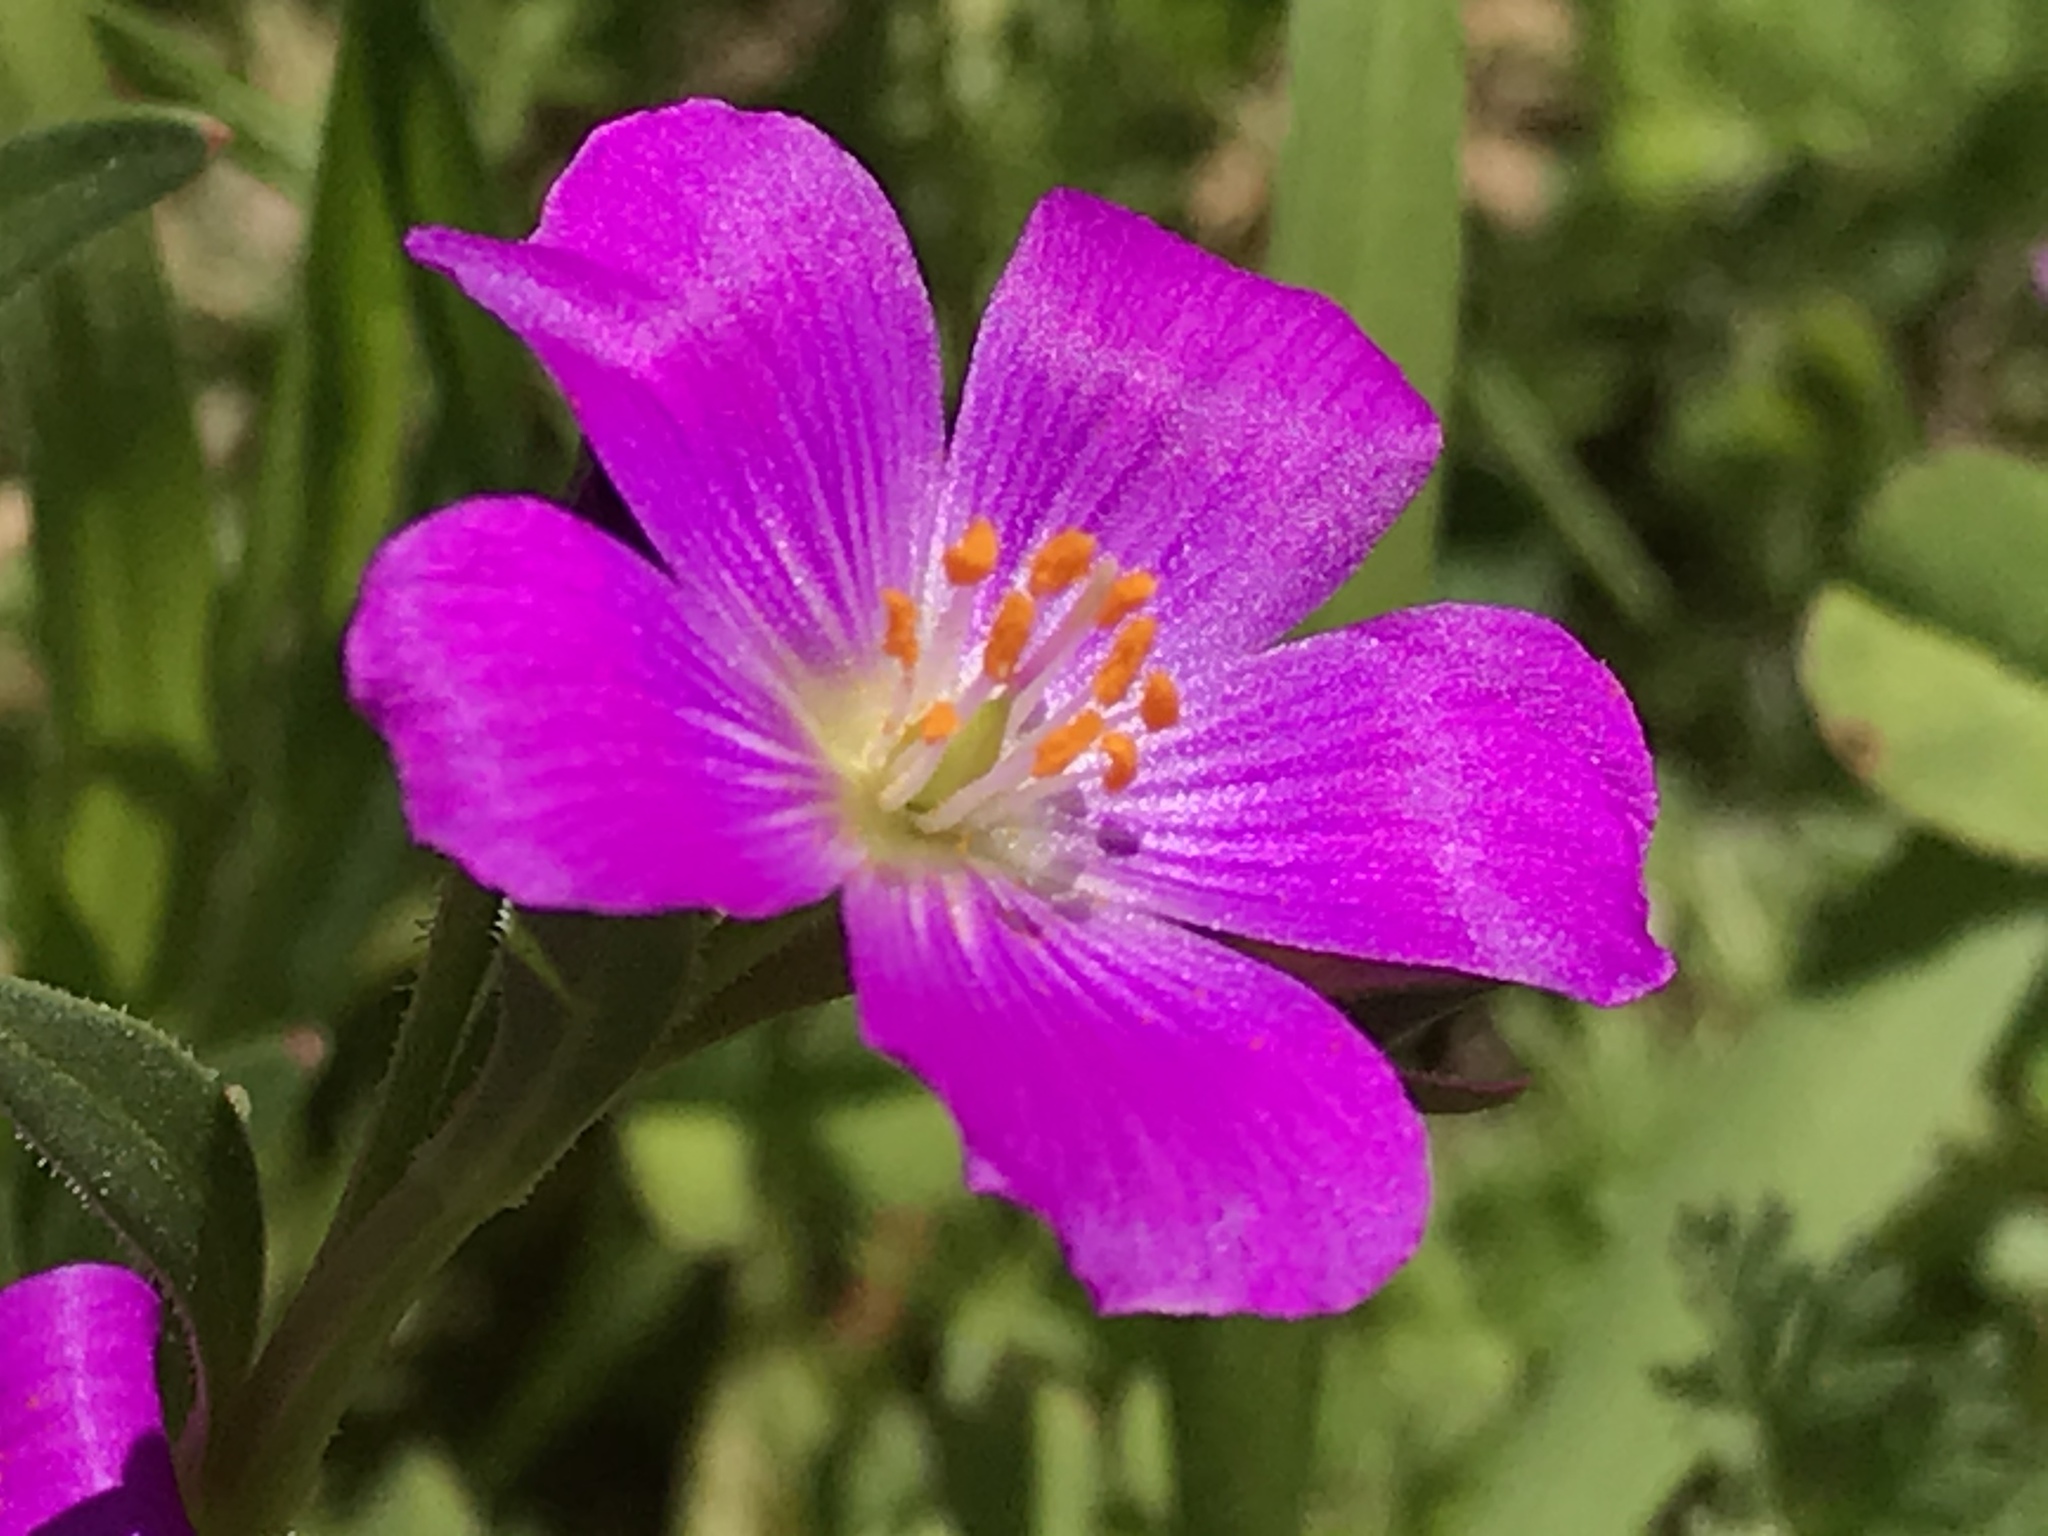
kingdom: Plantae
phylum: Tracheophyta
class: Magnoliopsida
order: Caryophyllales
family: Montiaceae
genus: Calandrinia
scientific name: Calandrinia menziesii
